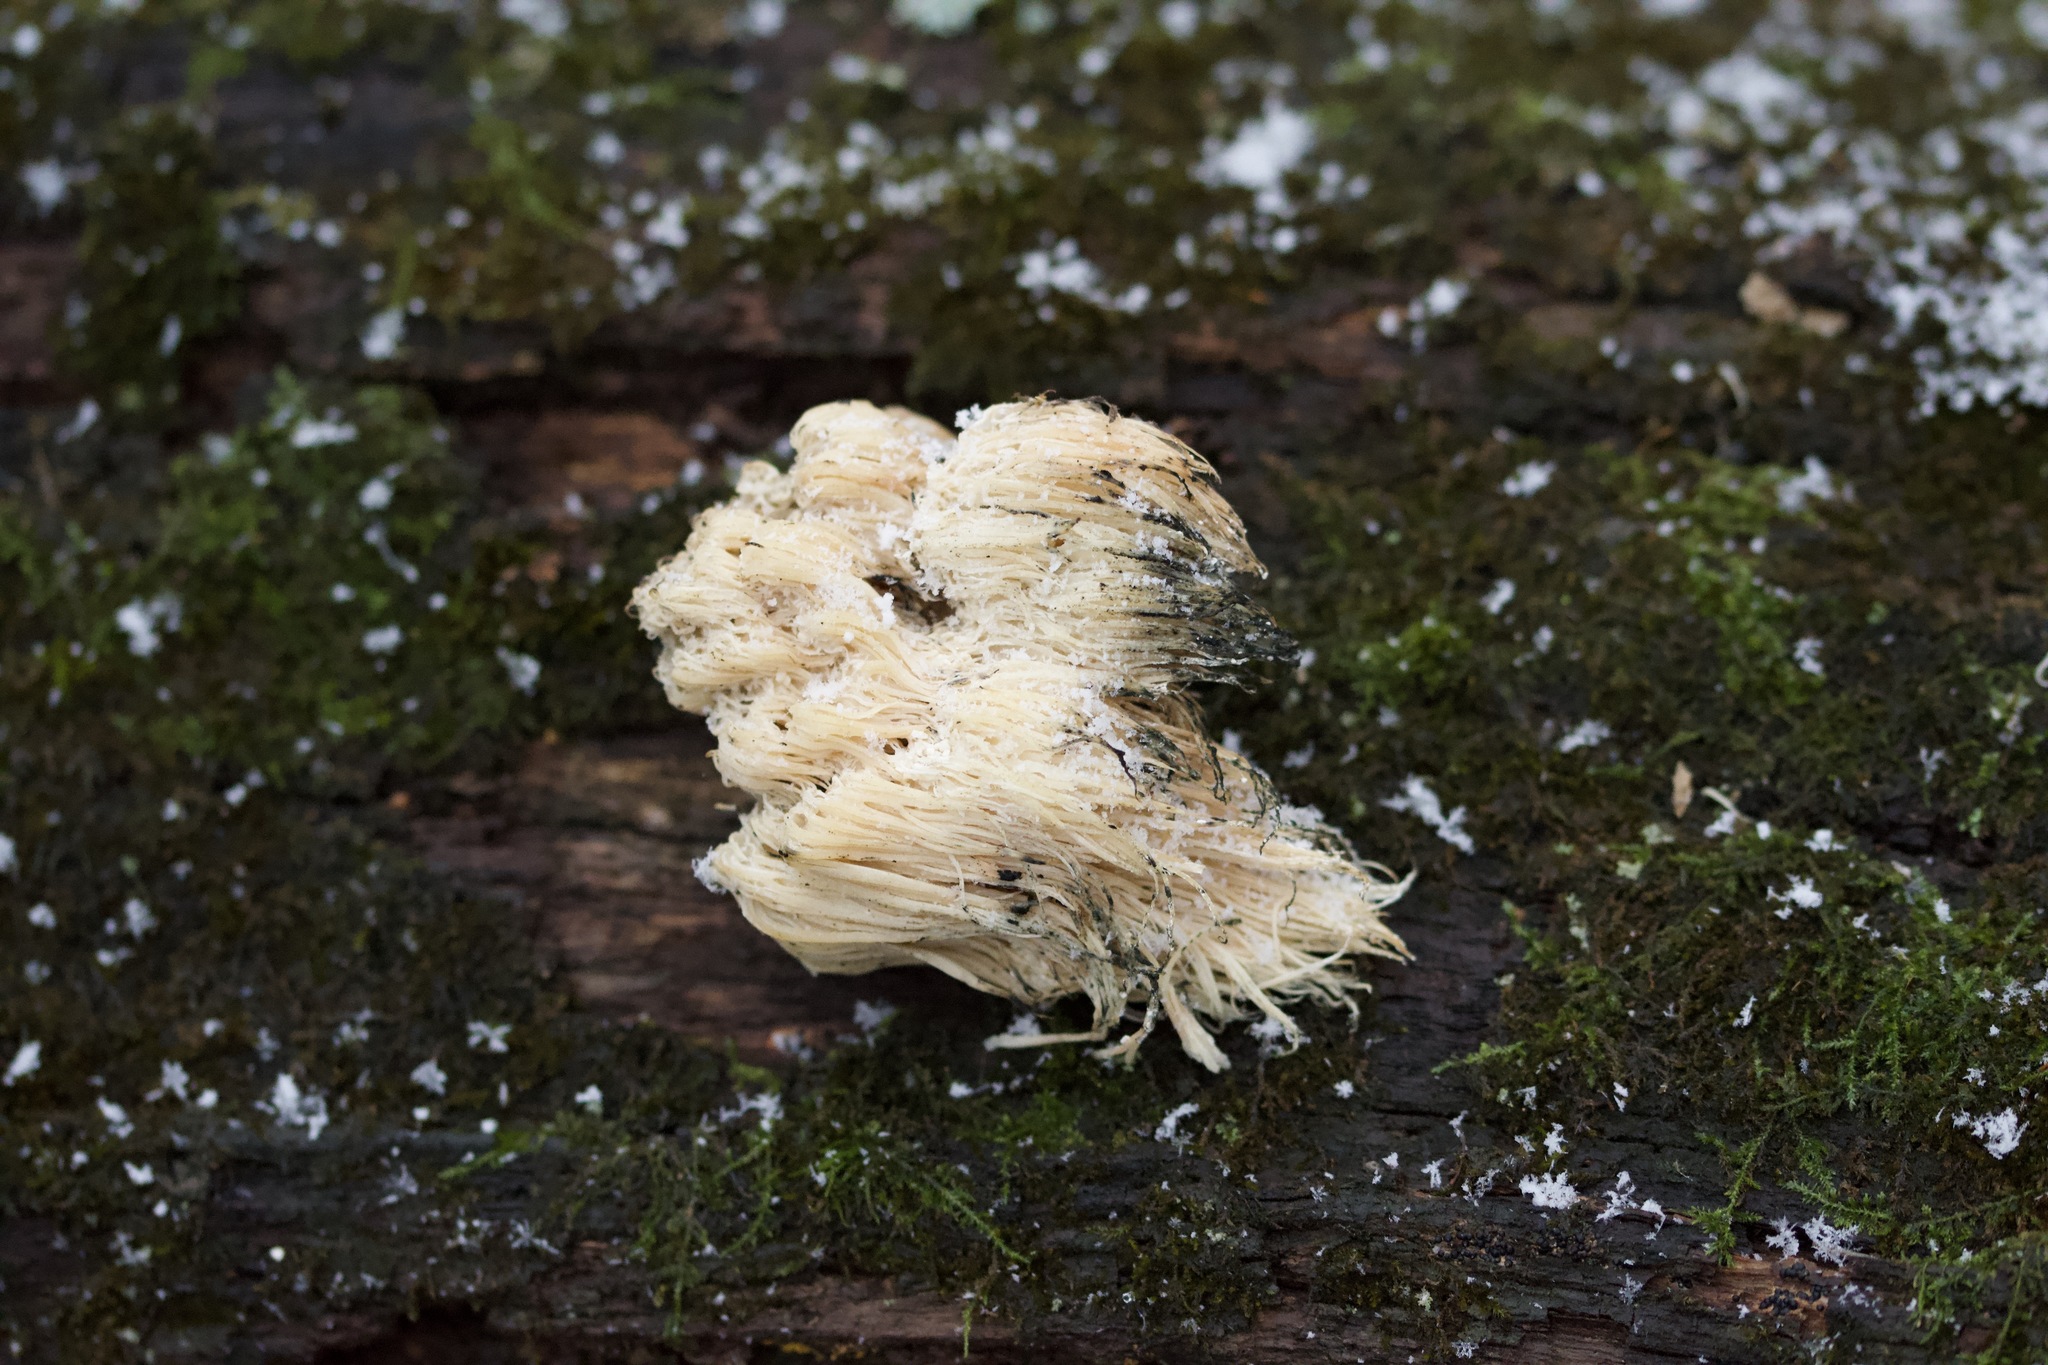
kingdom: Fungi
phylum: Basidiomycota
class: Agaricomycetes
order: Russulales
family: Hericiaceae
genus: Hericium
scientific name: Hericium americanum
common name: Bear's head tooth
